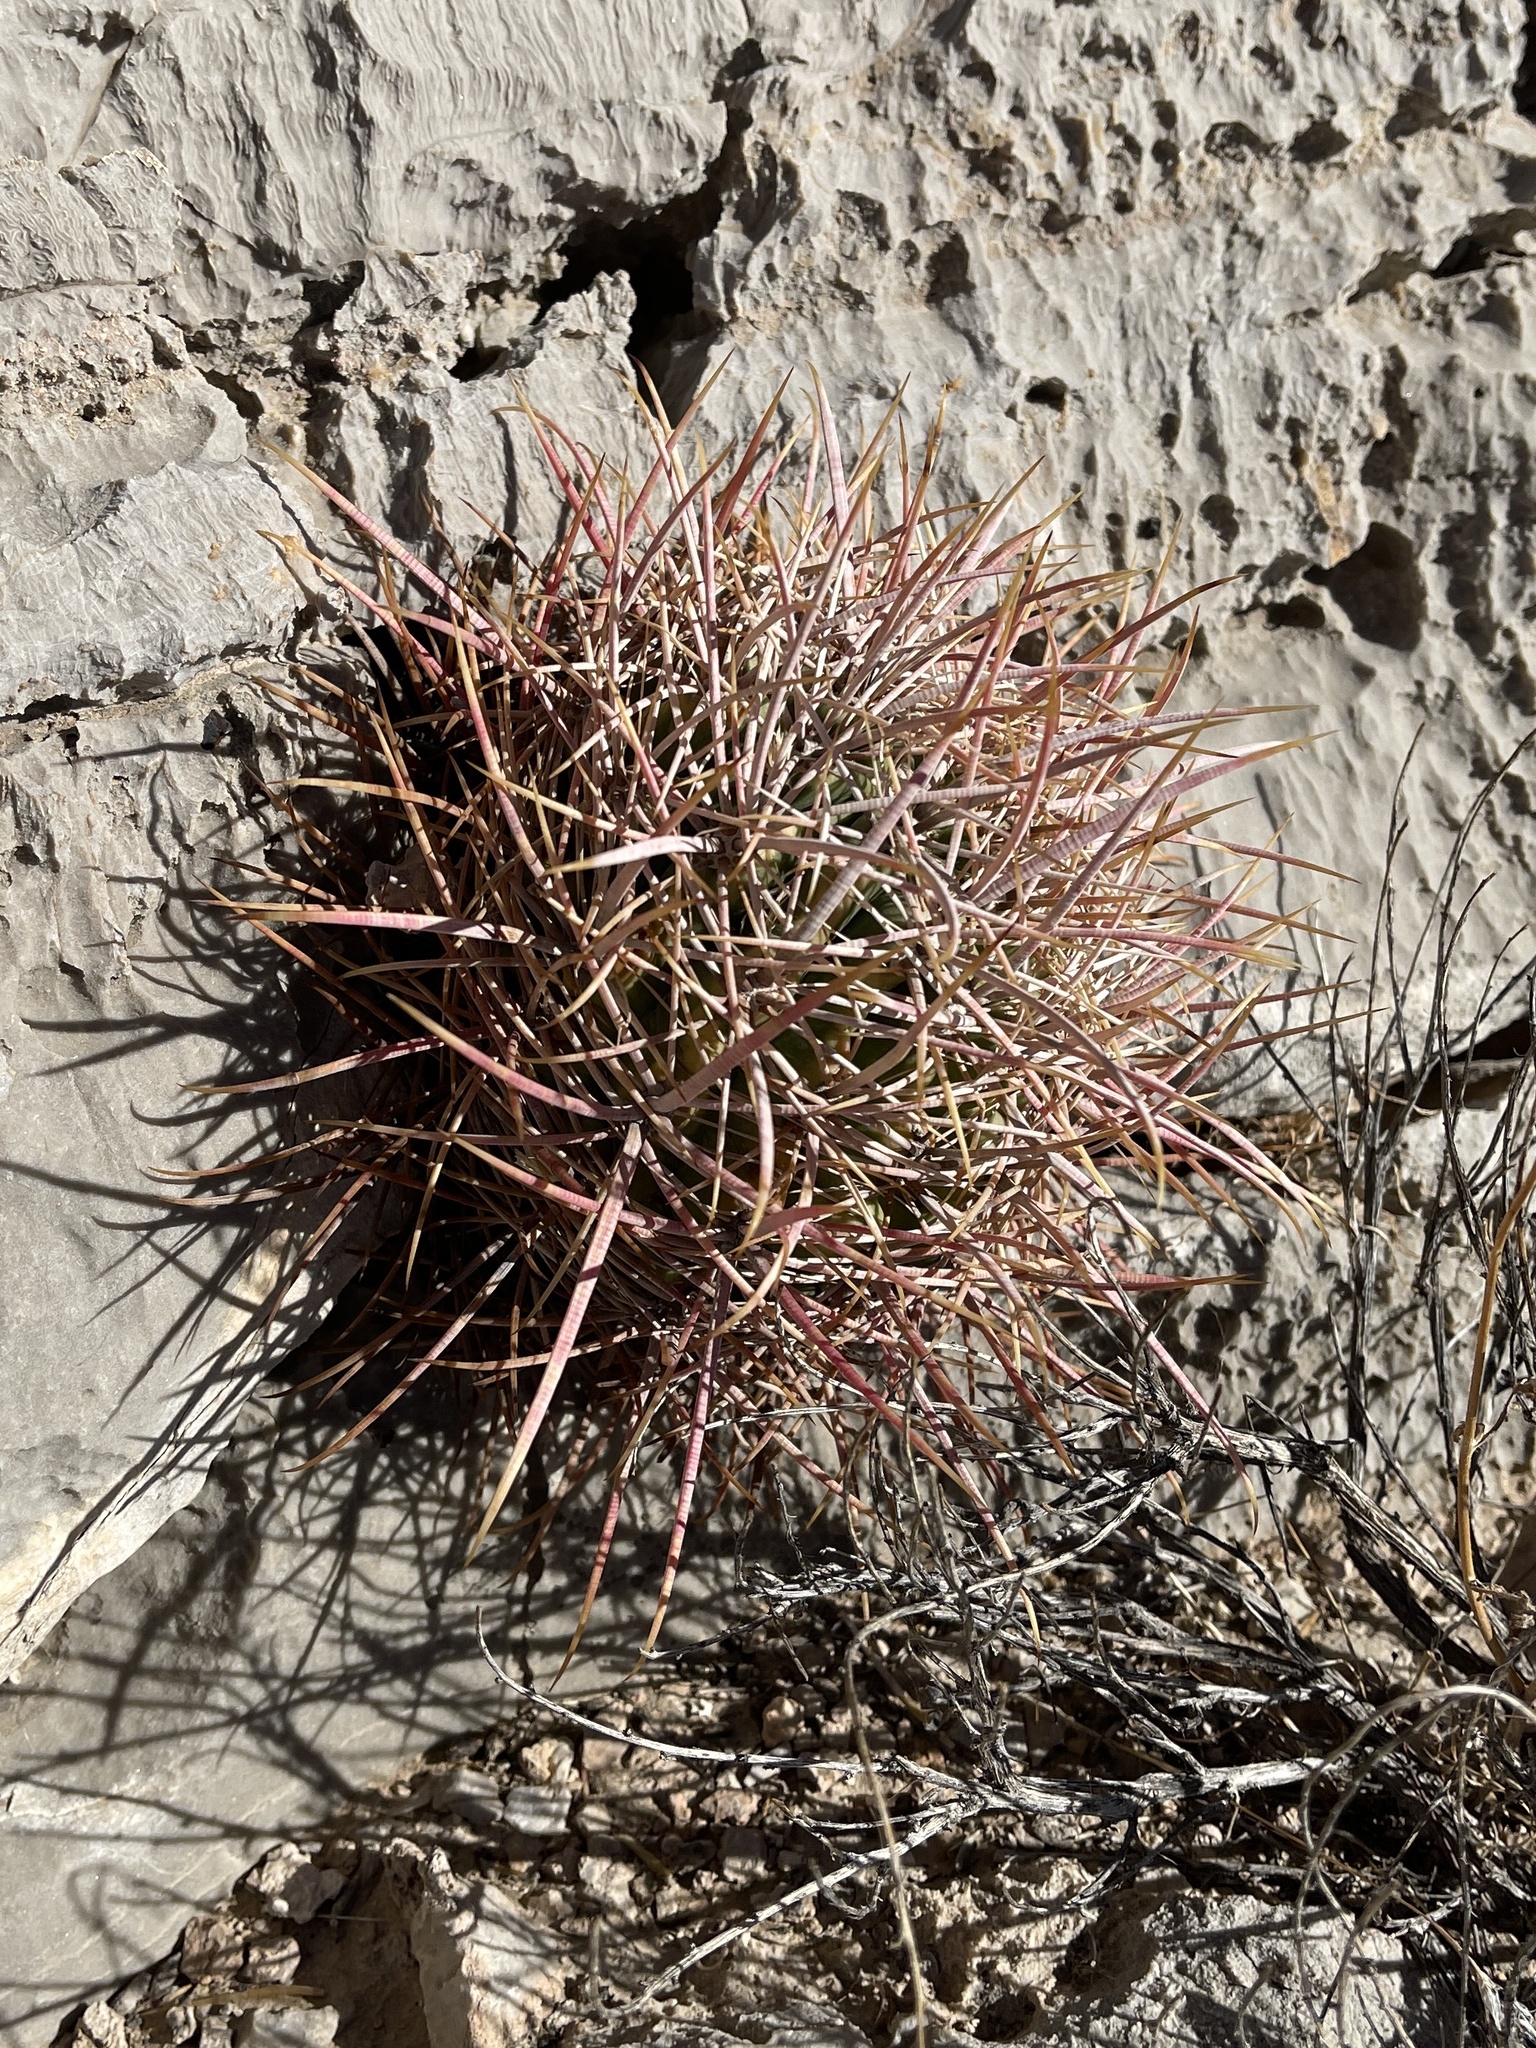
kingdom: Plantae
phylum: Tracheophyta
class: Magnoliopsida
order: Caryophyllales
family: Cactaceae
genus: Ferocactus
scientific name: Ferocactus cylindraceus
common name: California barrel cactus
